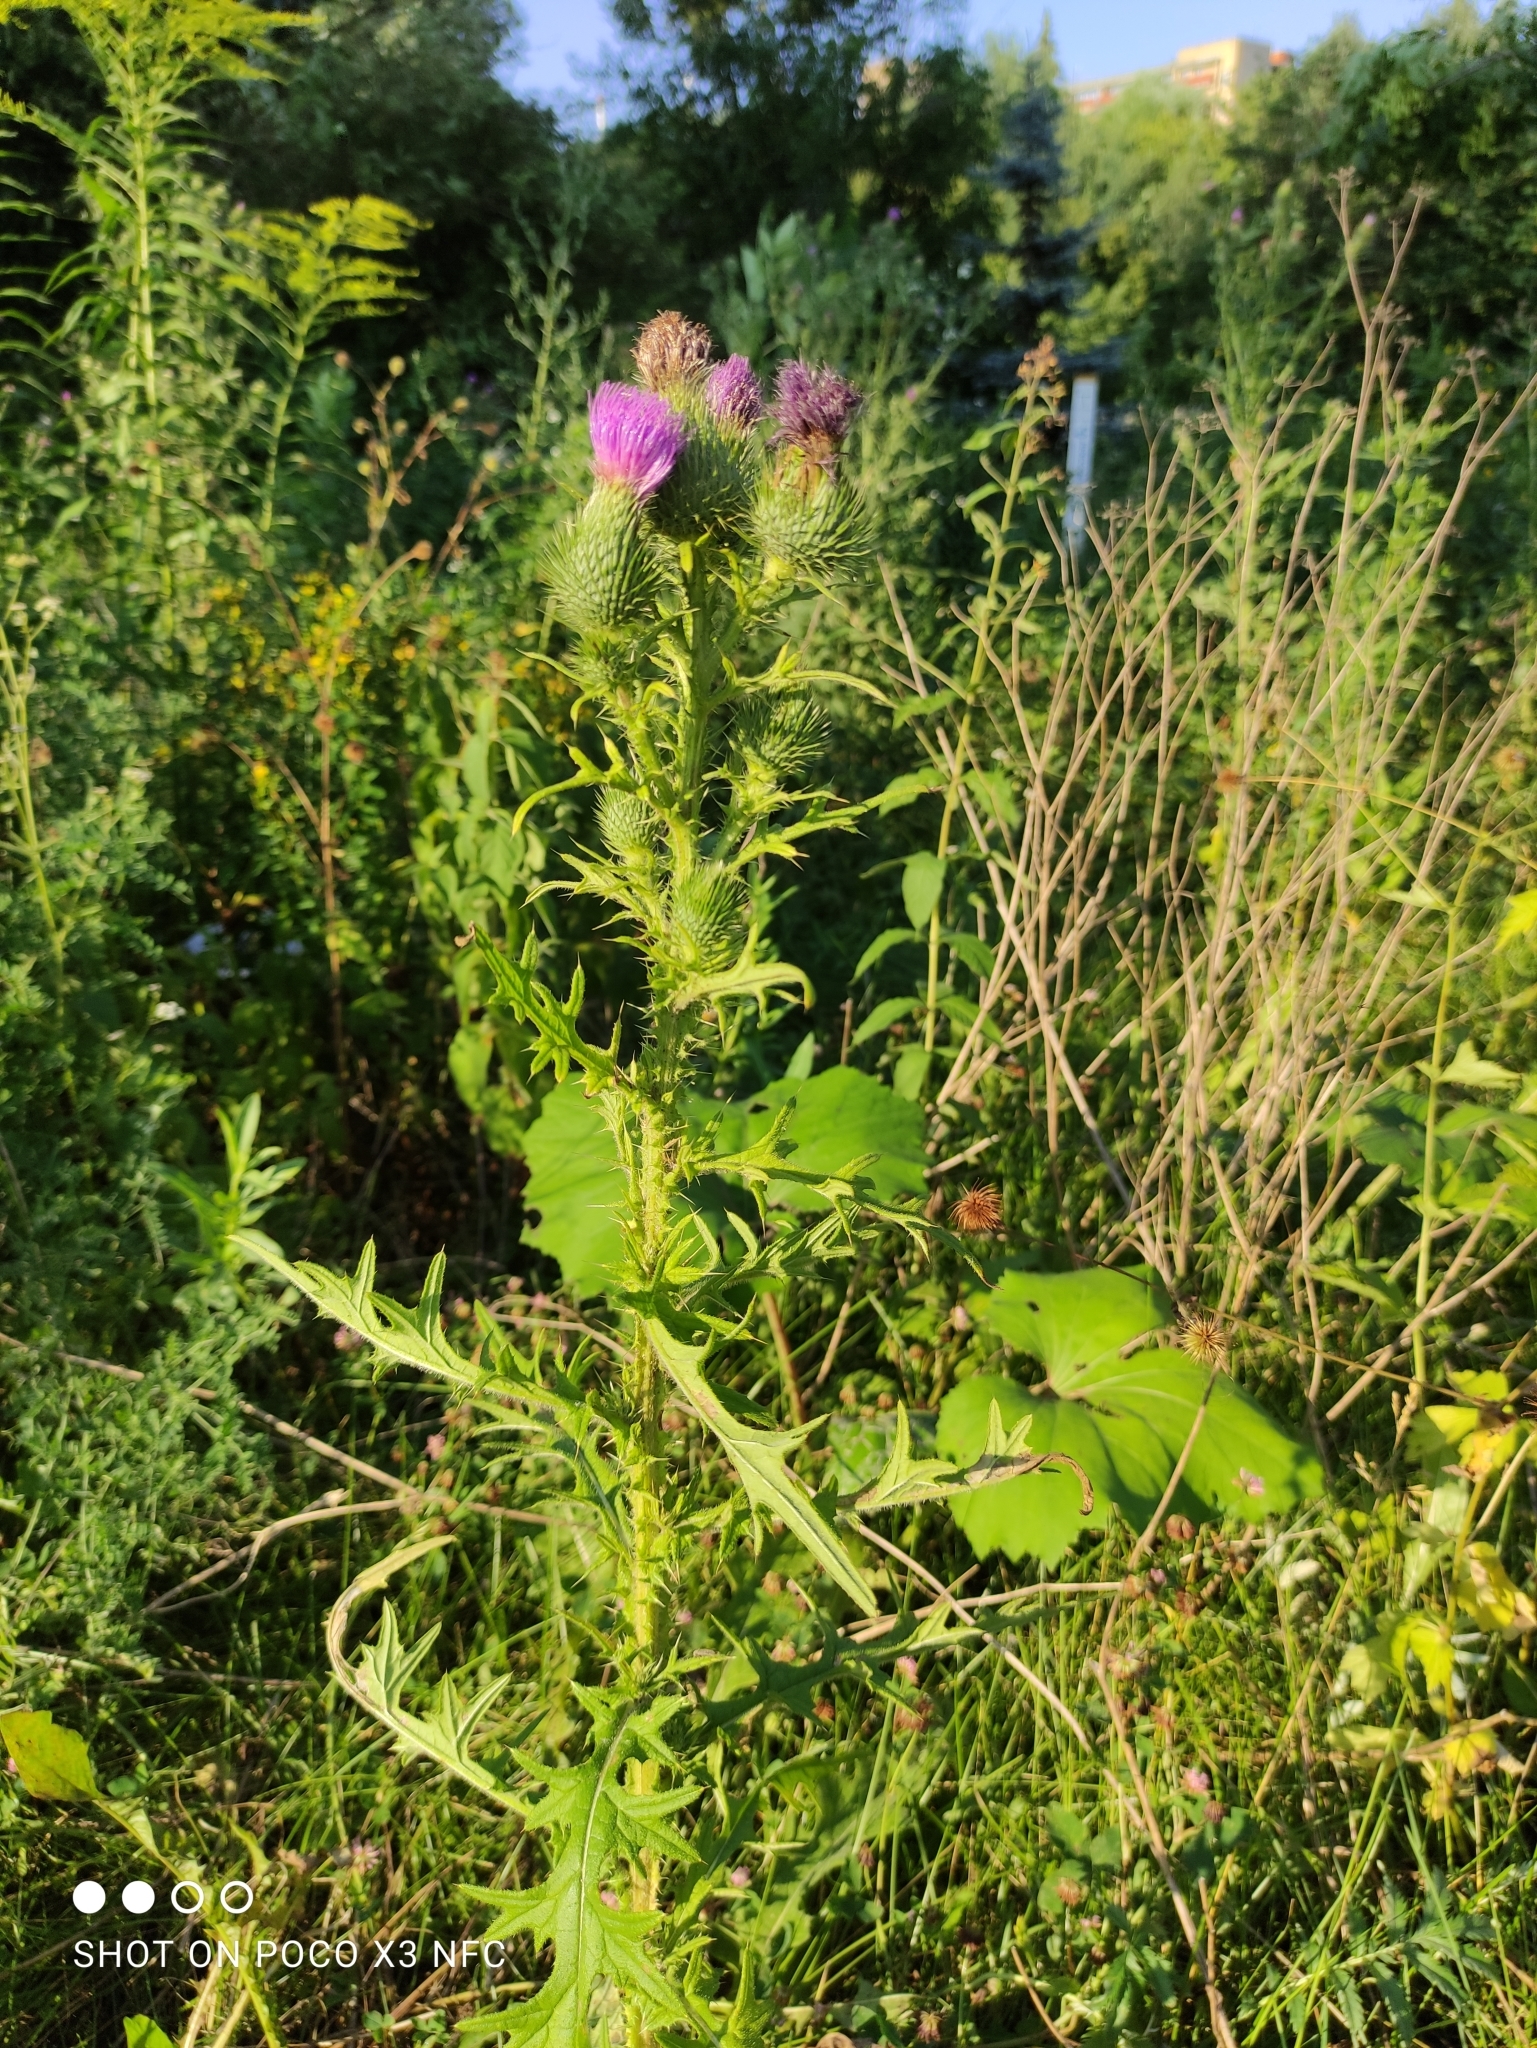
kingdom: Plantae
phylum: Tracheophyta
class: Magnoliopsida
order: Asterales
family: Asteraceae
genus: Cirsium
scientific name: Cirsium vulgare
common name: Bull thistle
